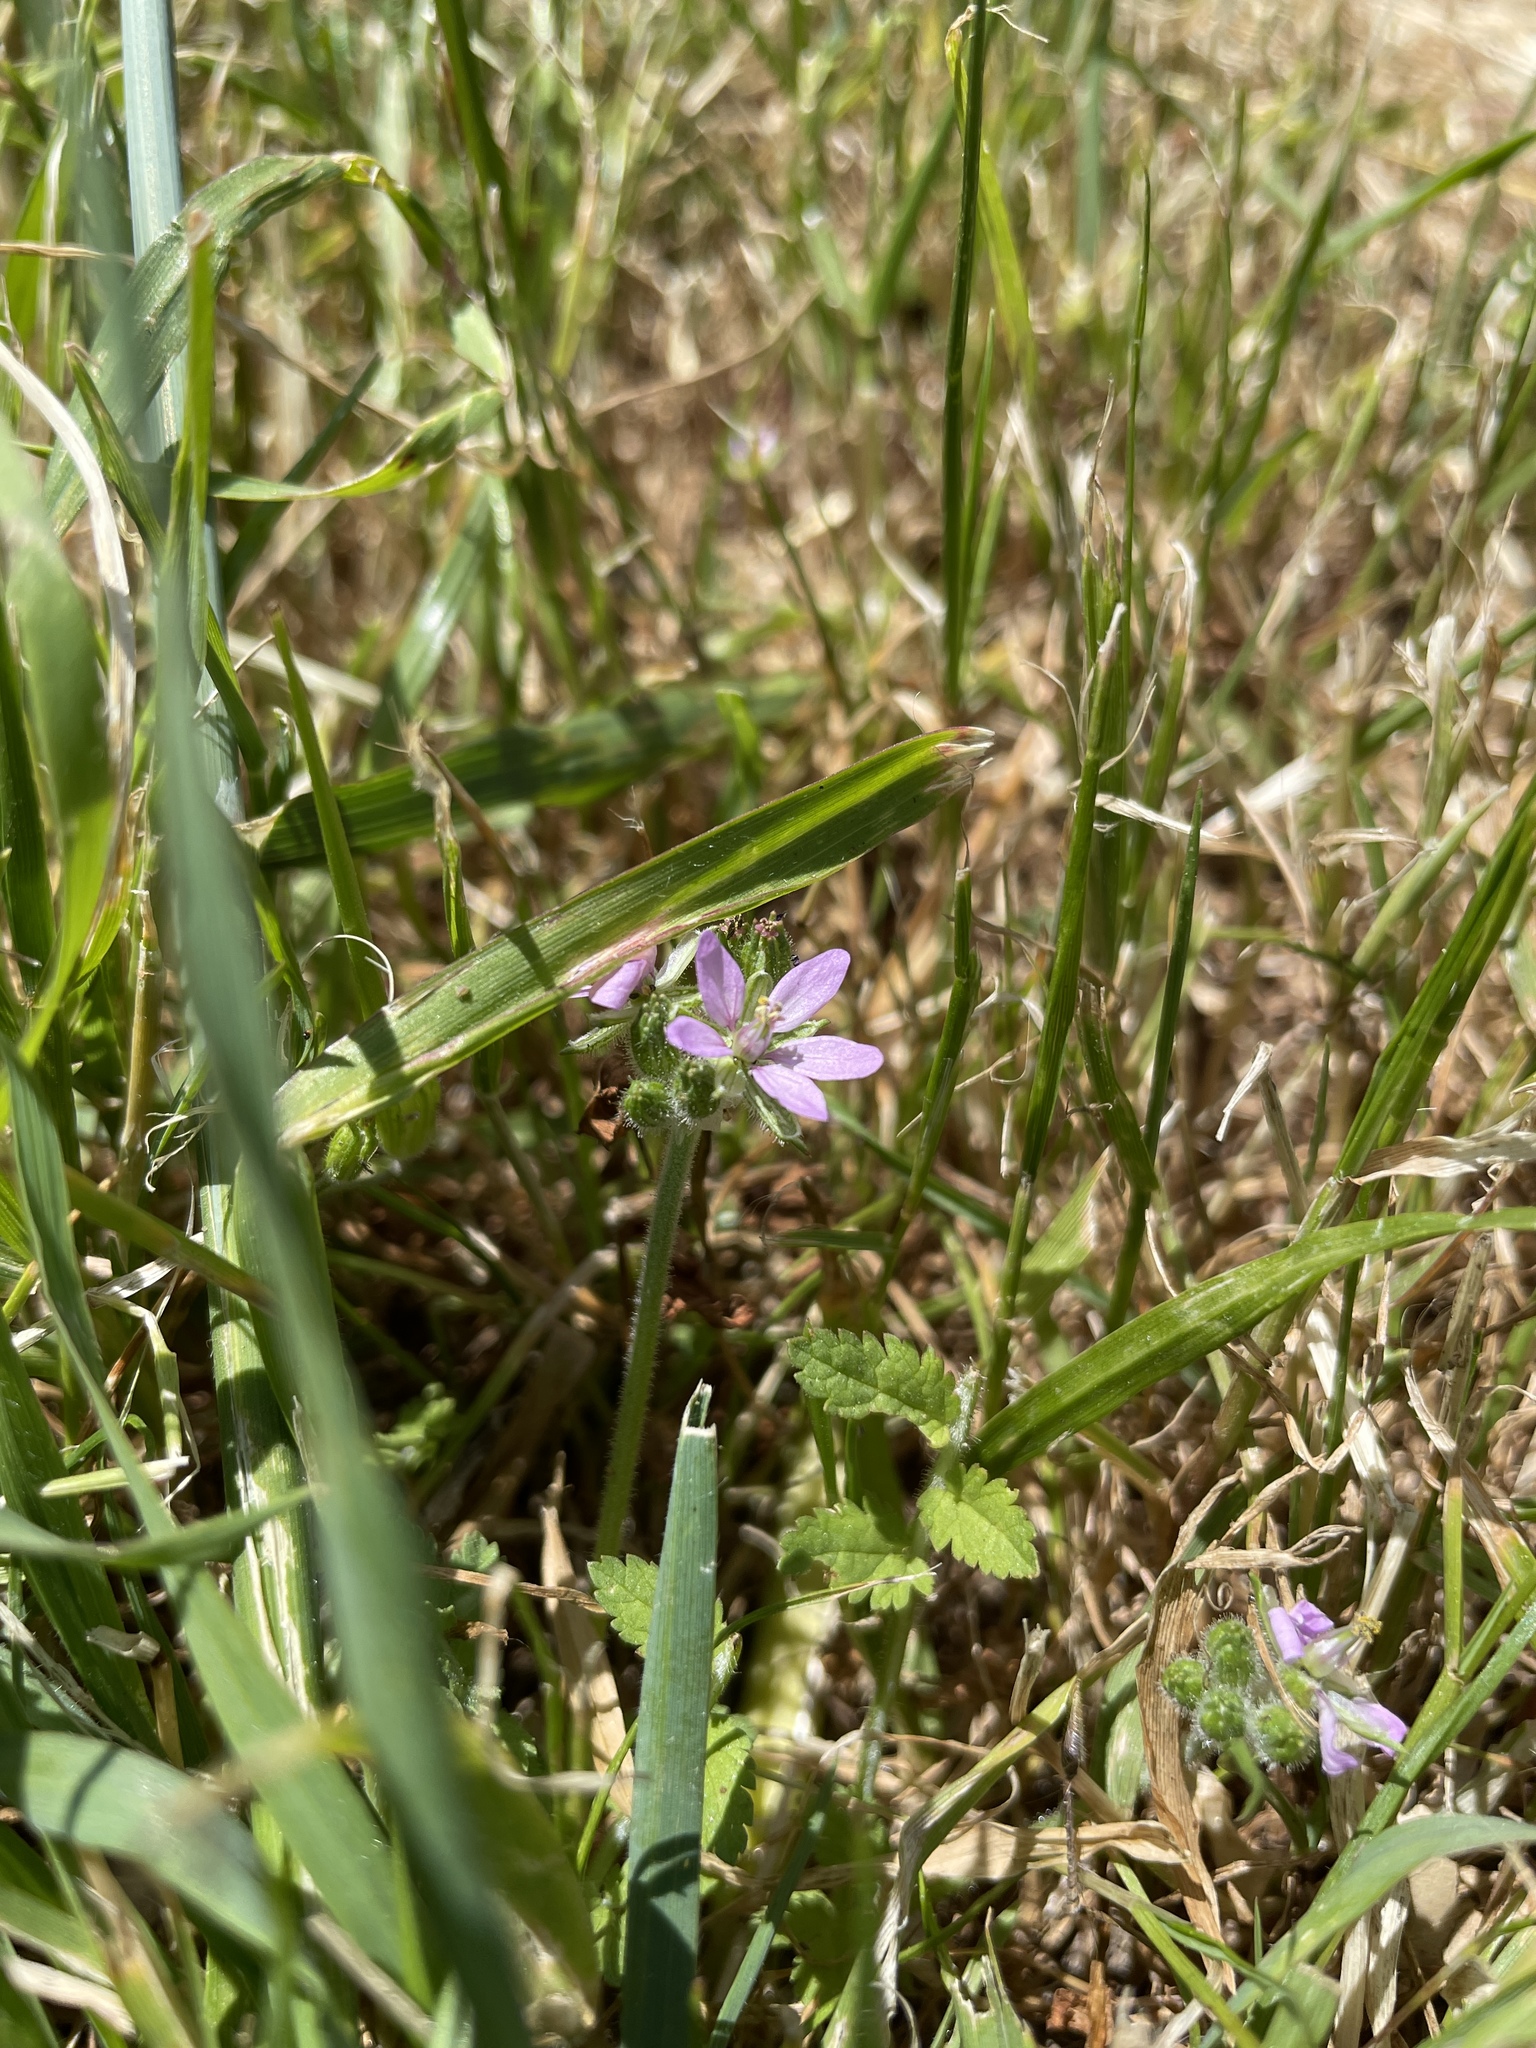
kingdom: Plantae
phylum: Tracheophyta
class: Magnoliopsida
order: Geraniales
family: Geraniaceae
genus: Erodium
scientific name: Erodium moschatum
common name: Musk stork's-bill
